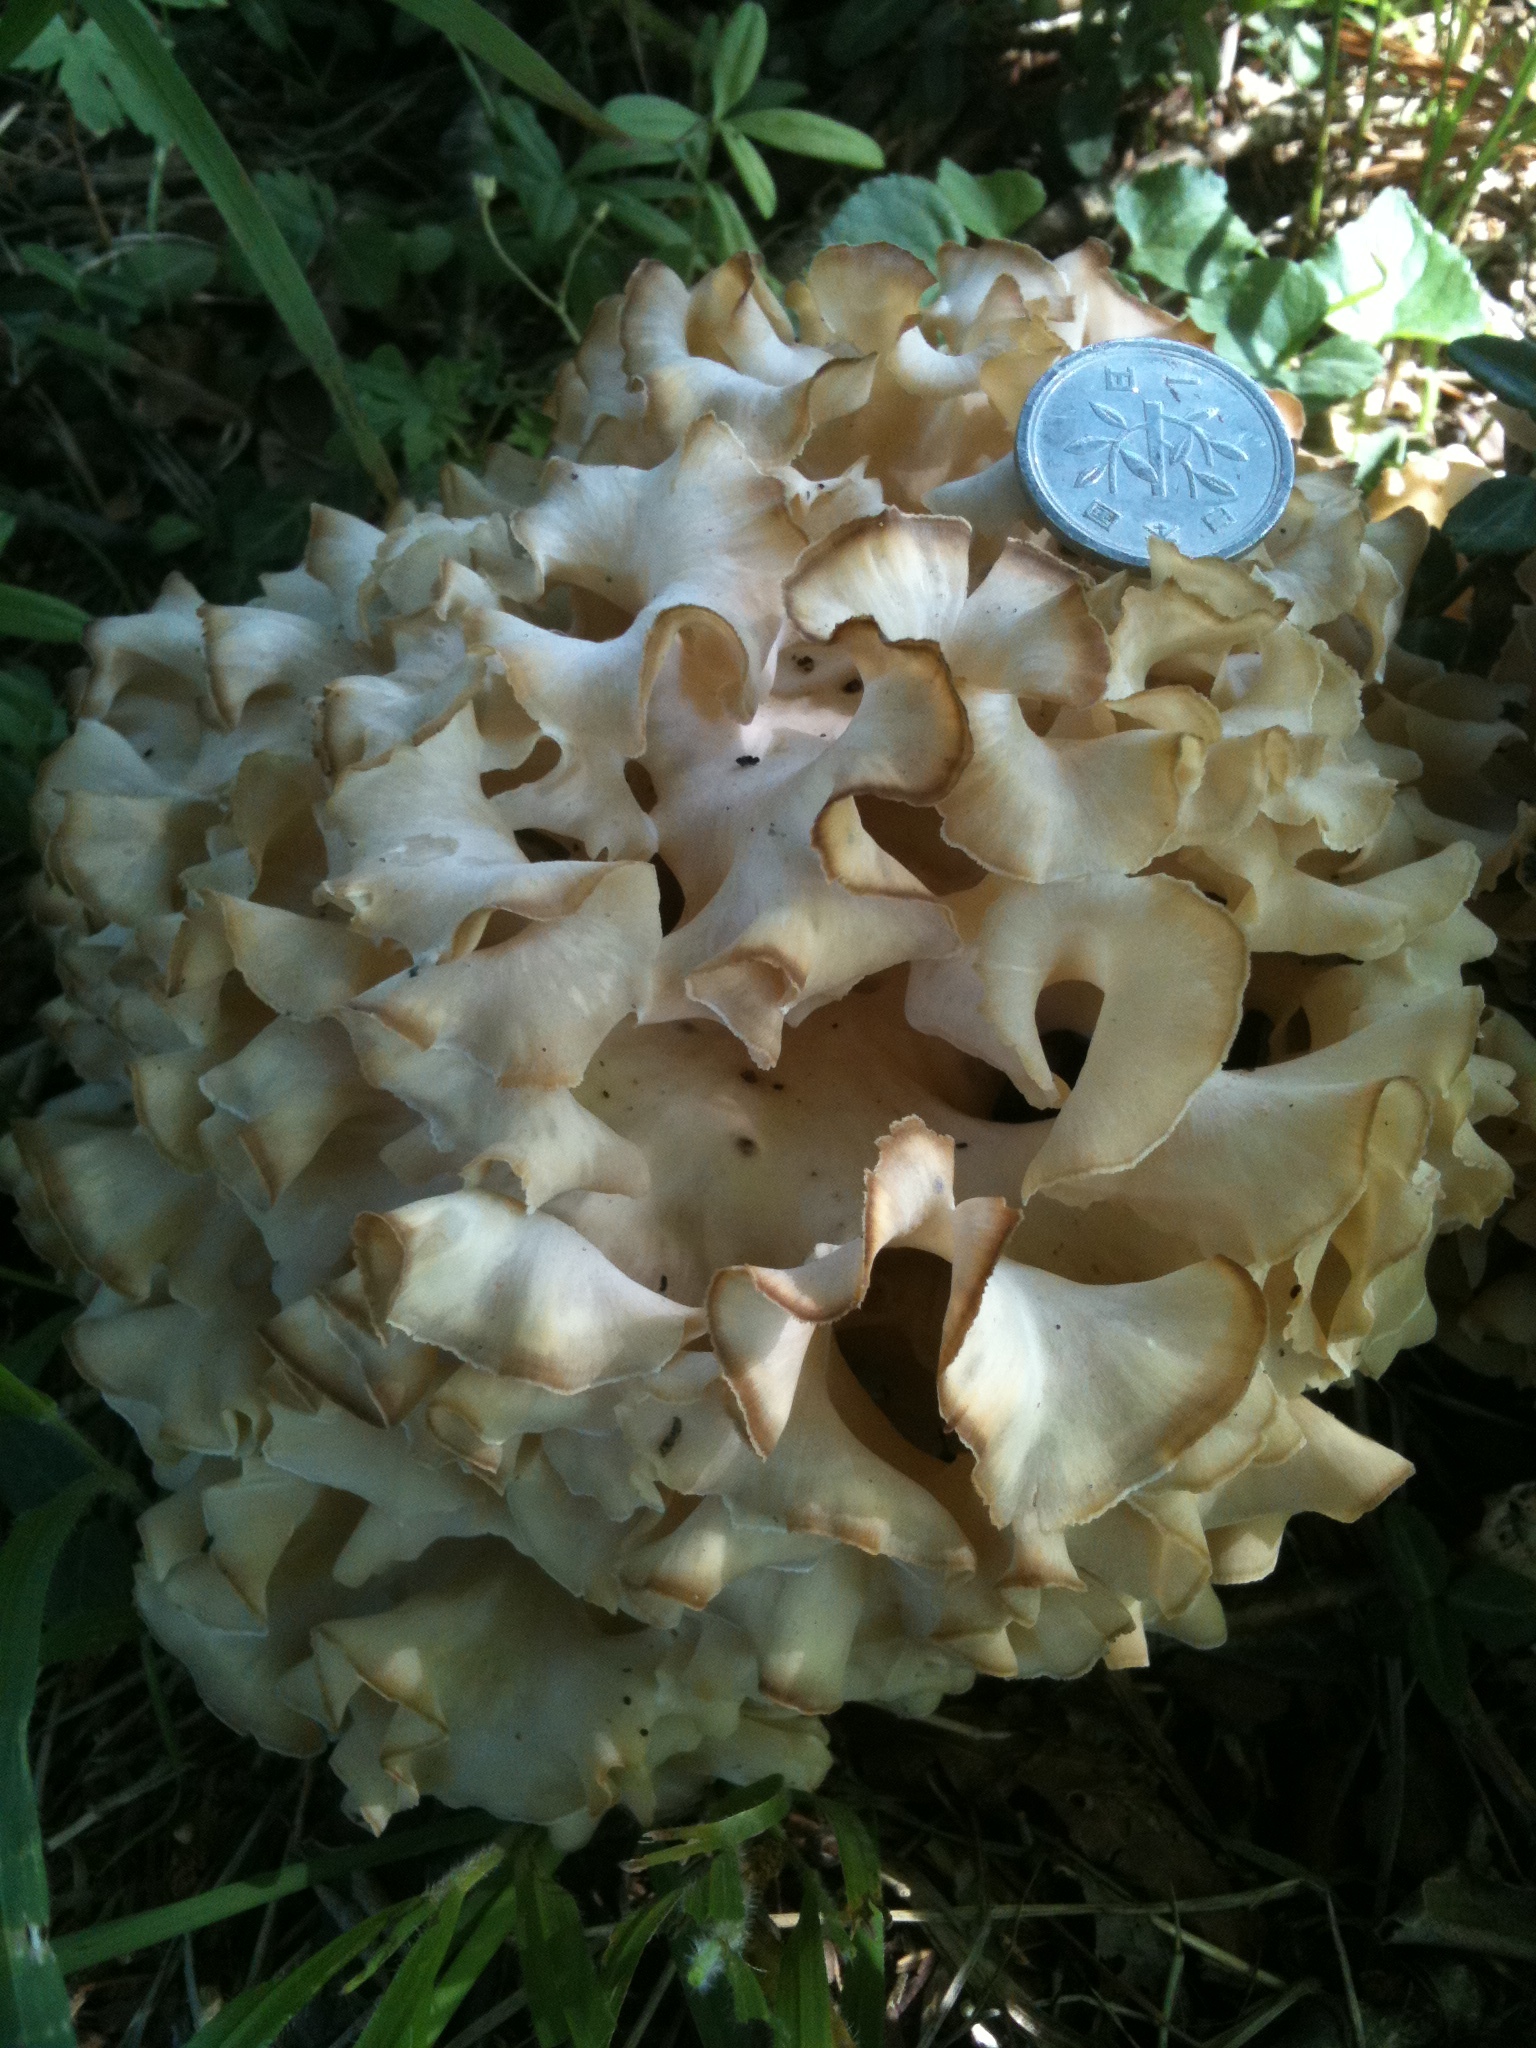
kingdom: Fungi
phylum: Basidiomycota
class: Agaricomycetes
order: Polyporales
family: Sparassidaceae
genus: Sparassis
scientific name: Sparassis crispa
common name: Brain fungus
